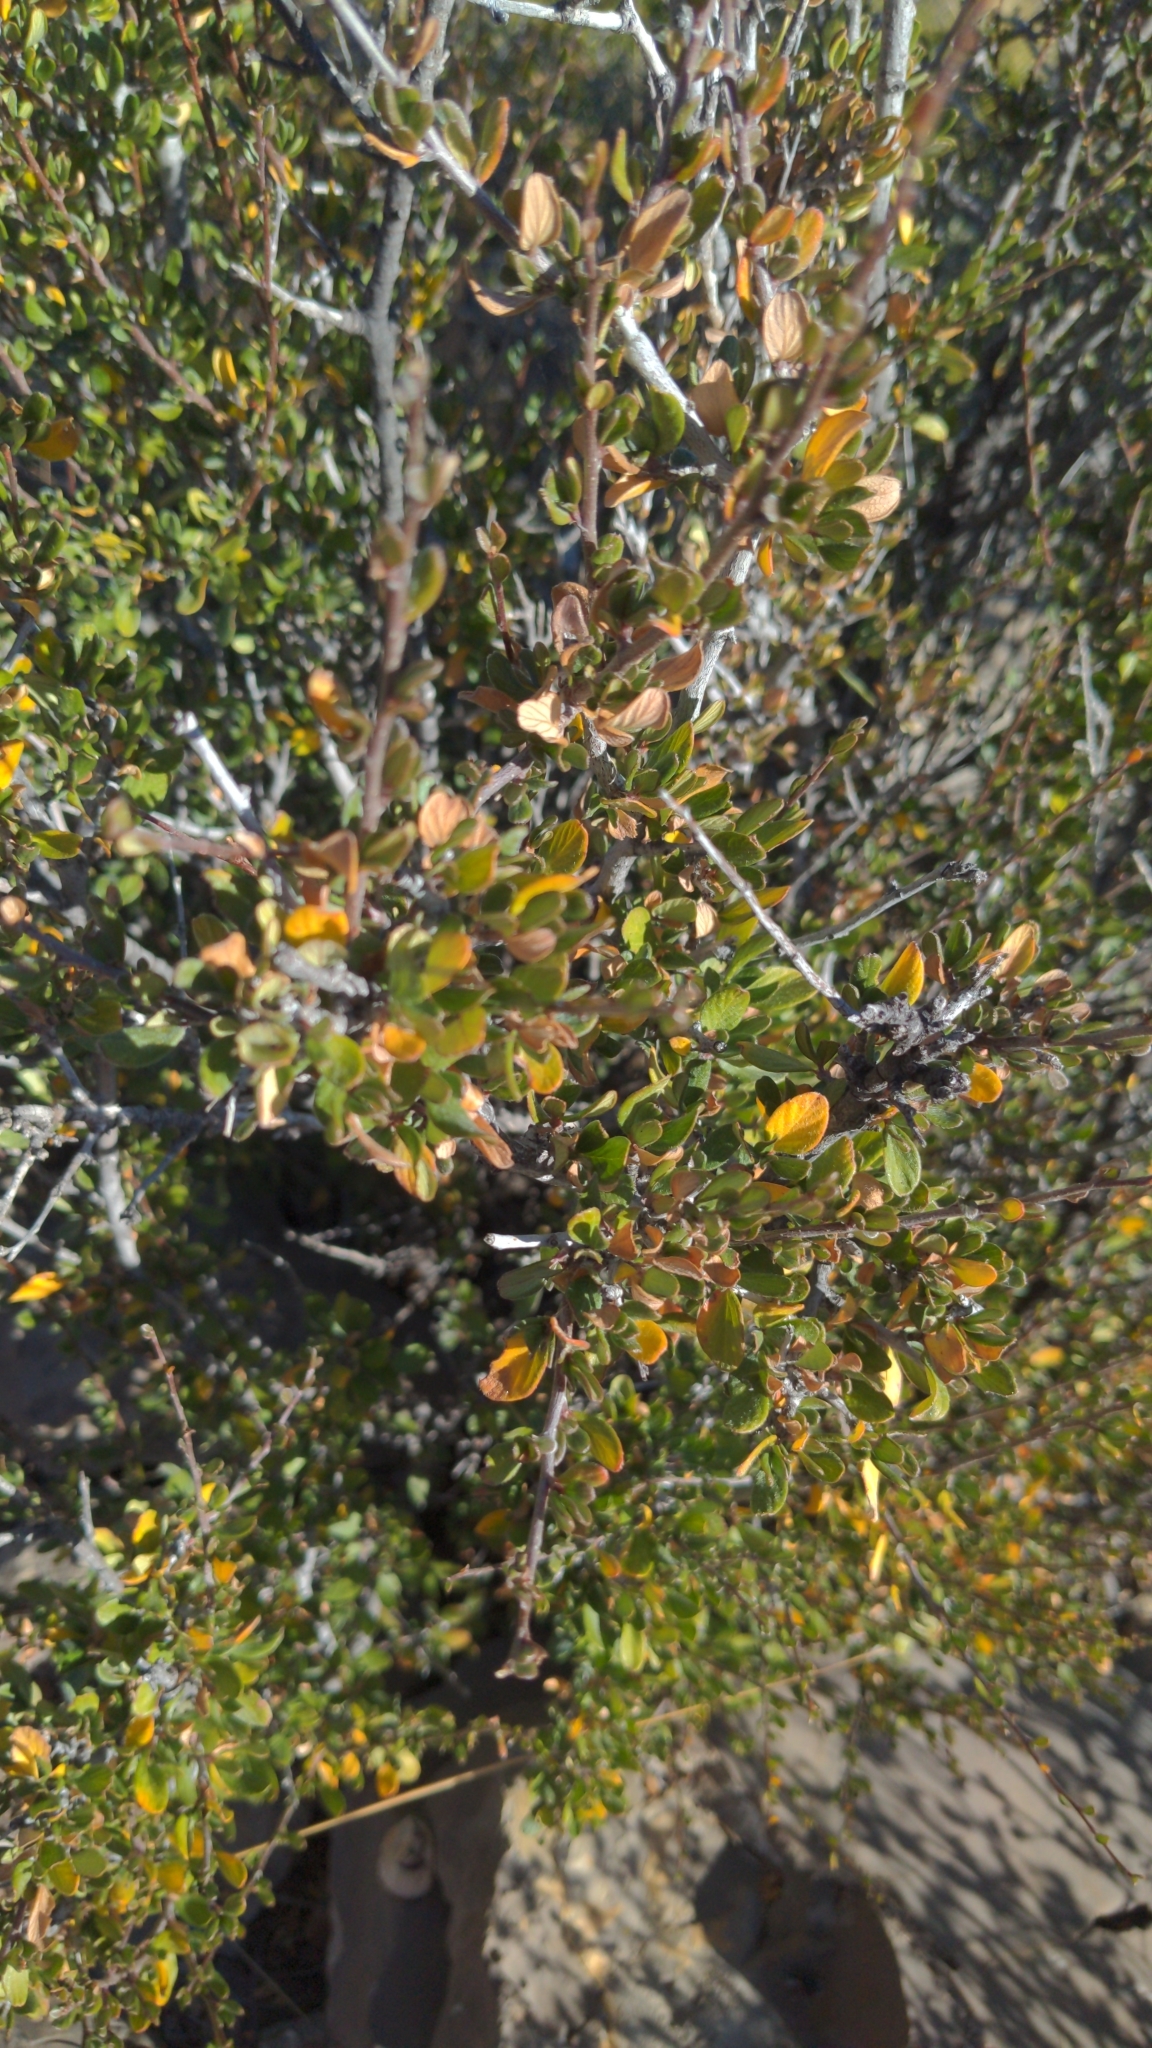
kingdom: Plantae
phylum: Tracheophyta
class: Magnoliopsida
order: Rosales
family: Rosaceae
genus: Cercocarpus
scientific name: Cercocarpus breviflorus
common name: Wright's mountain-mahogany
